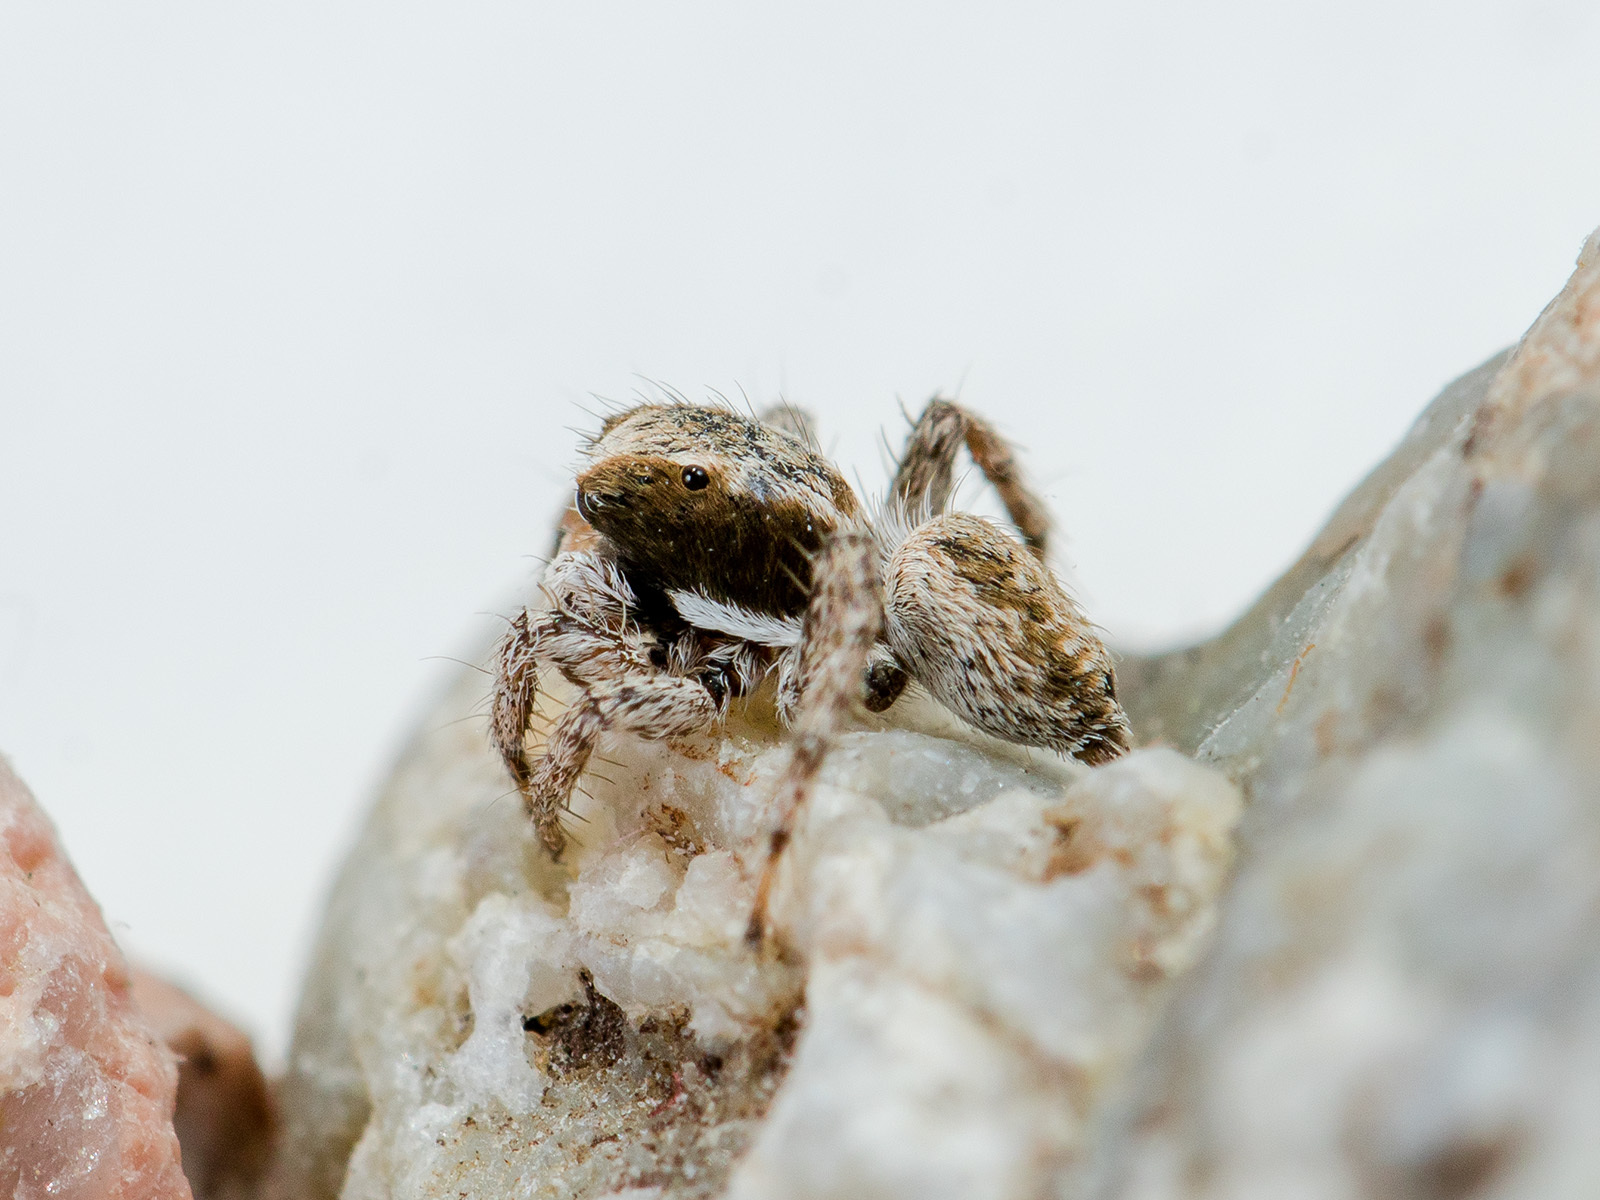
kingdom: Animalia
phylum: Arthropoda
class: Arachnida
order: Araneae
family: Salticidae
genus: Aelurillus
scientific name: Aelurillus andreevae
